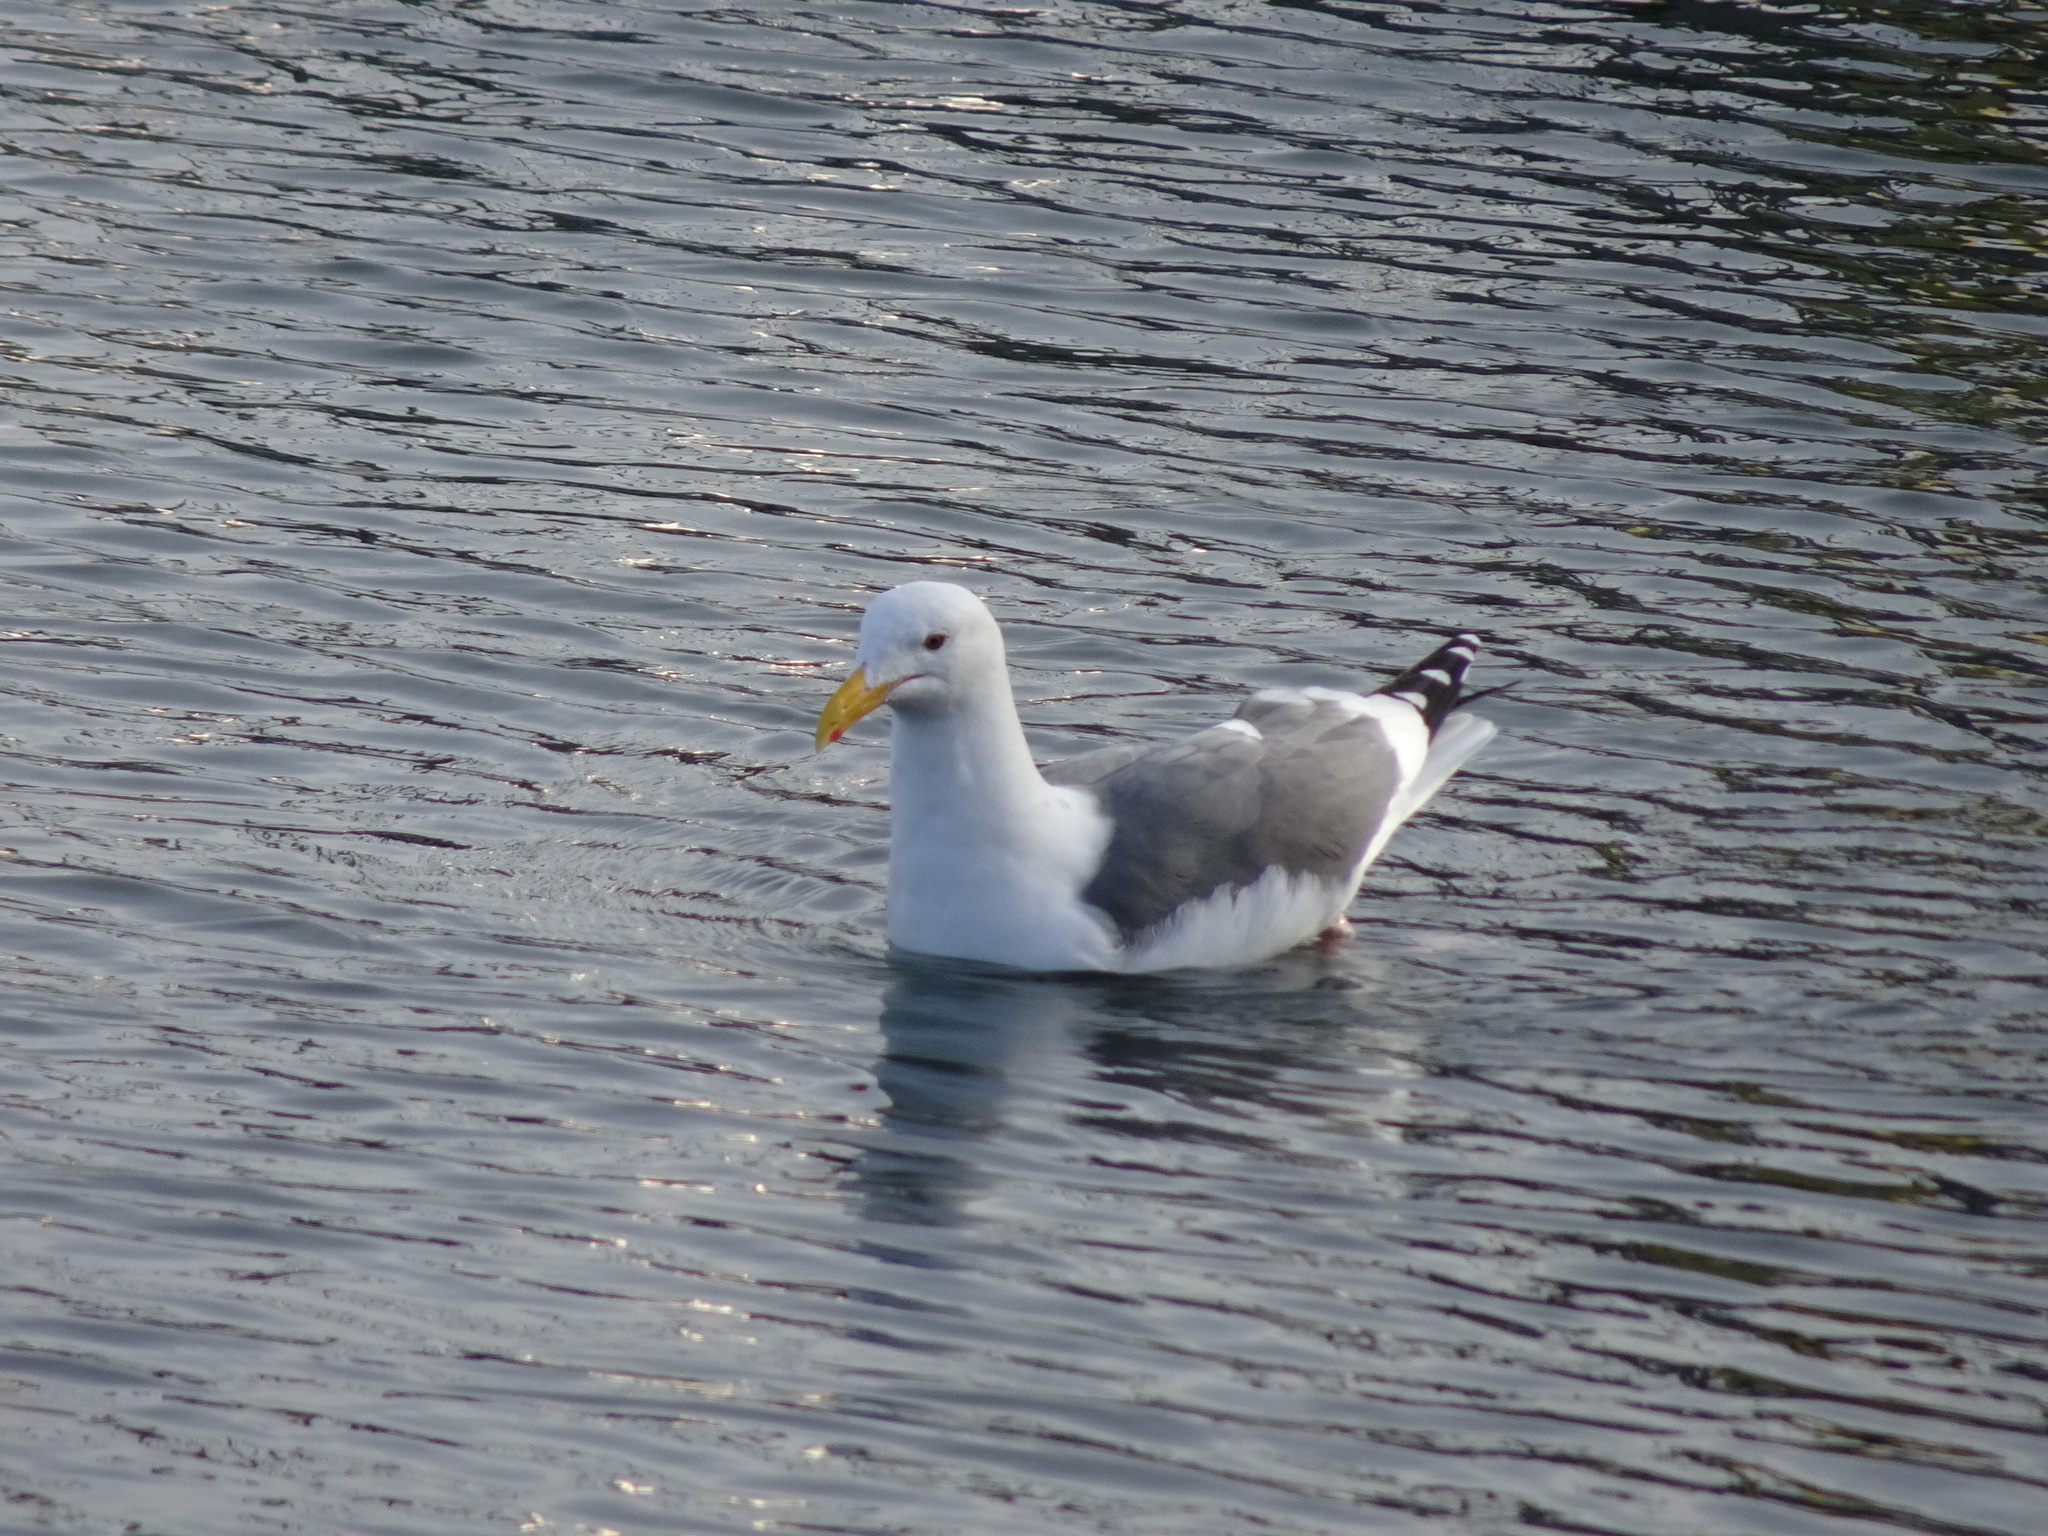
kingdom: Animalia
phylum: Chordata
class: Aves
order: Charadriiformes
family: Laridae
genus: Larus
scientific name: Larus occidentalis
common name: Western gull
